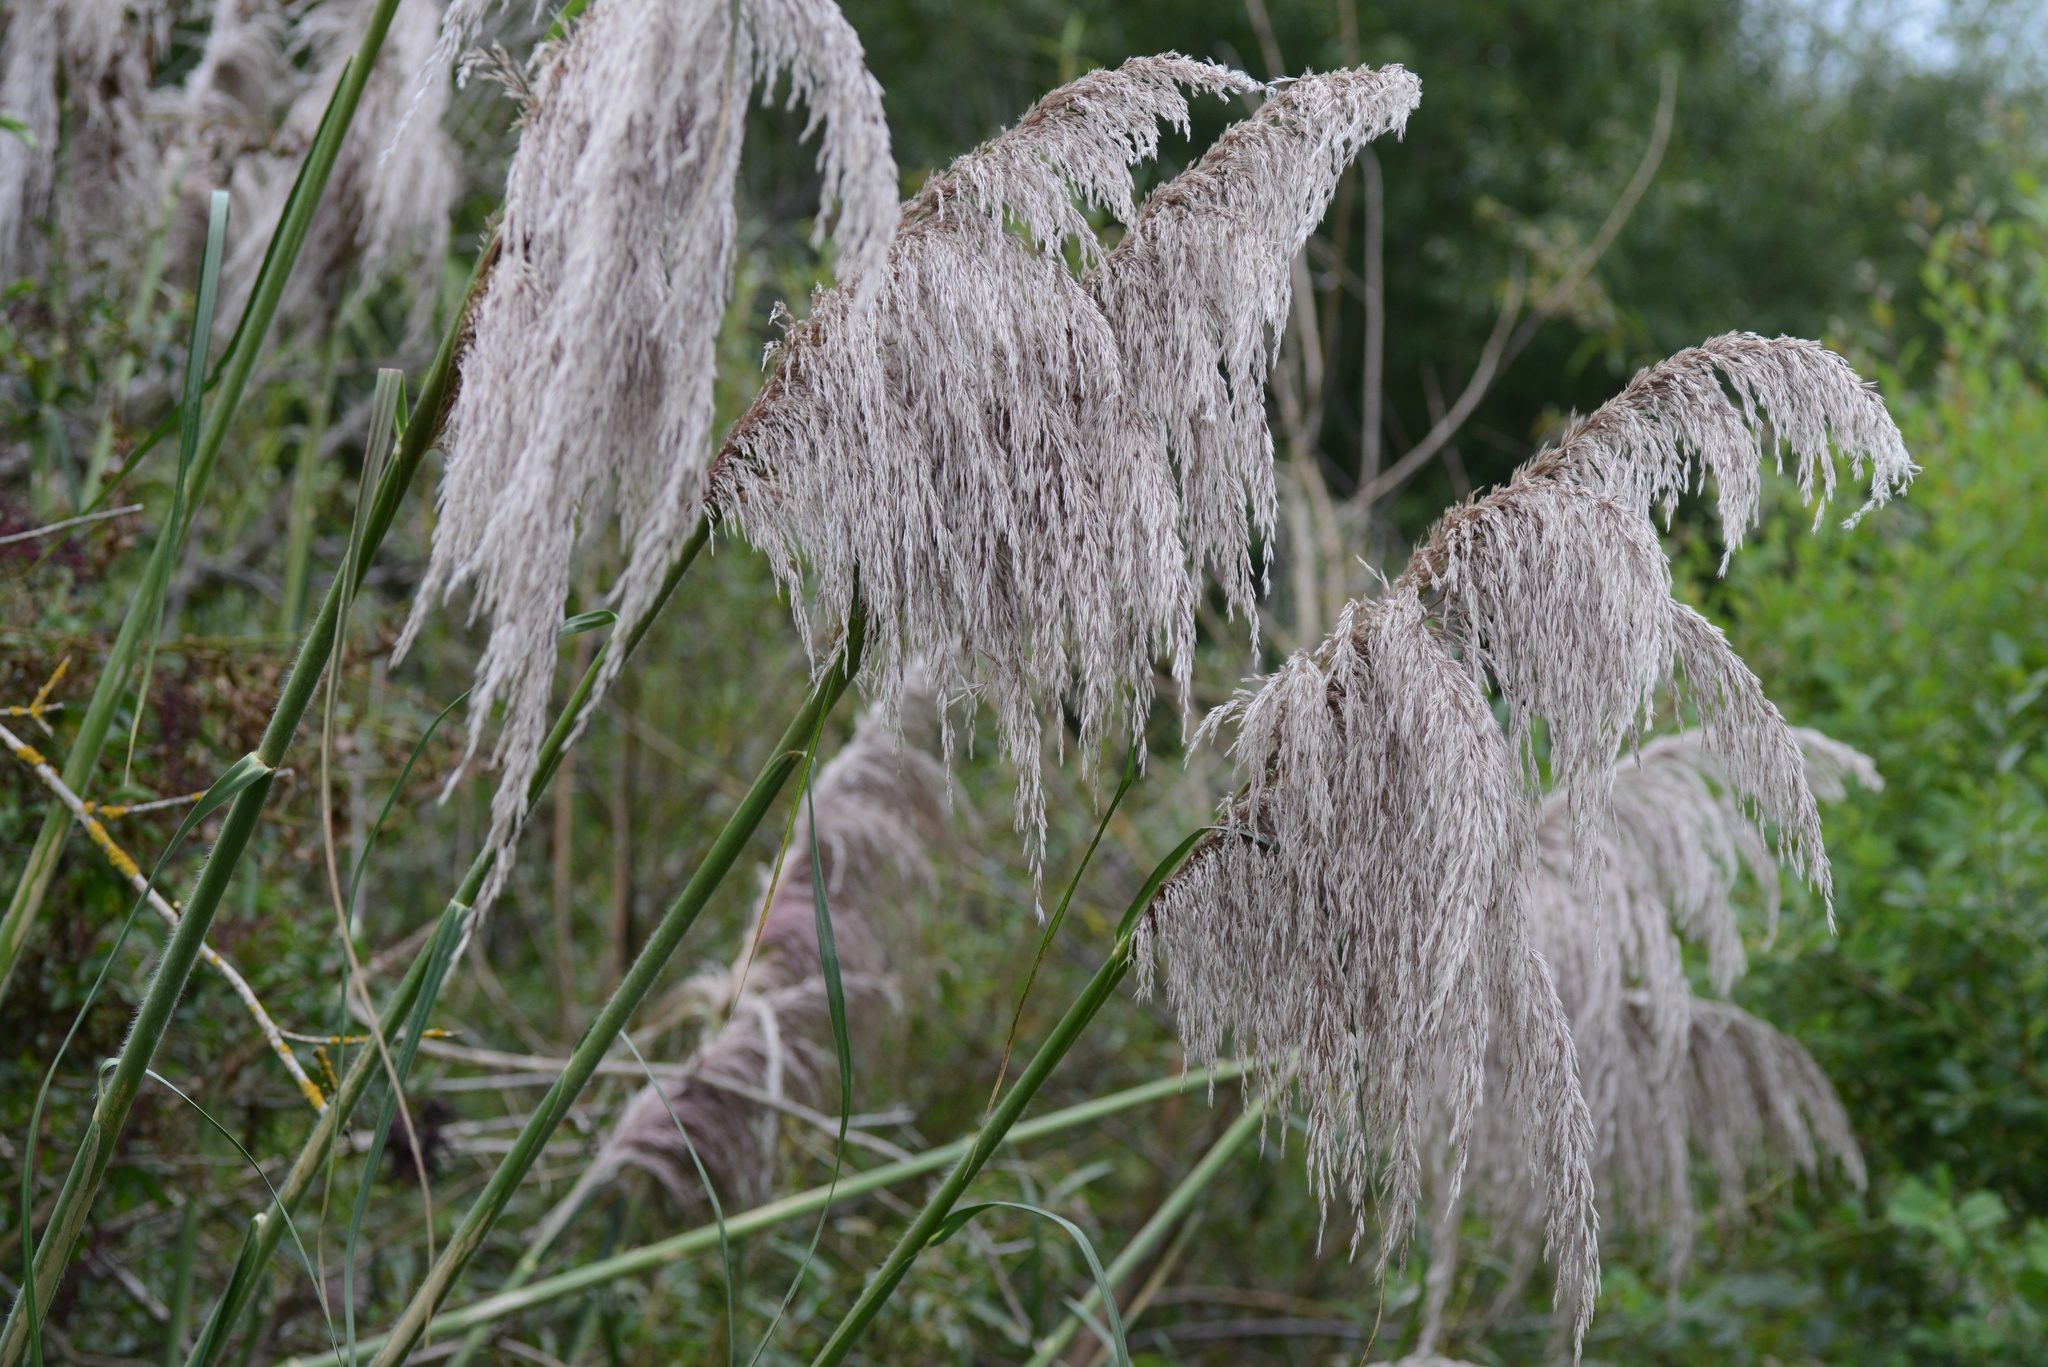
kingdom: Plantae
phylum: Tracheophyta
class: Liliopsida
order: Poales
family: Poaceae
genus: Cortaderia
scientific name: Cortaderia jubata
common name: Purple pampas grass
